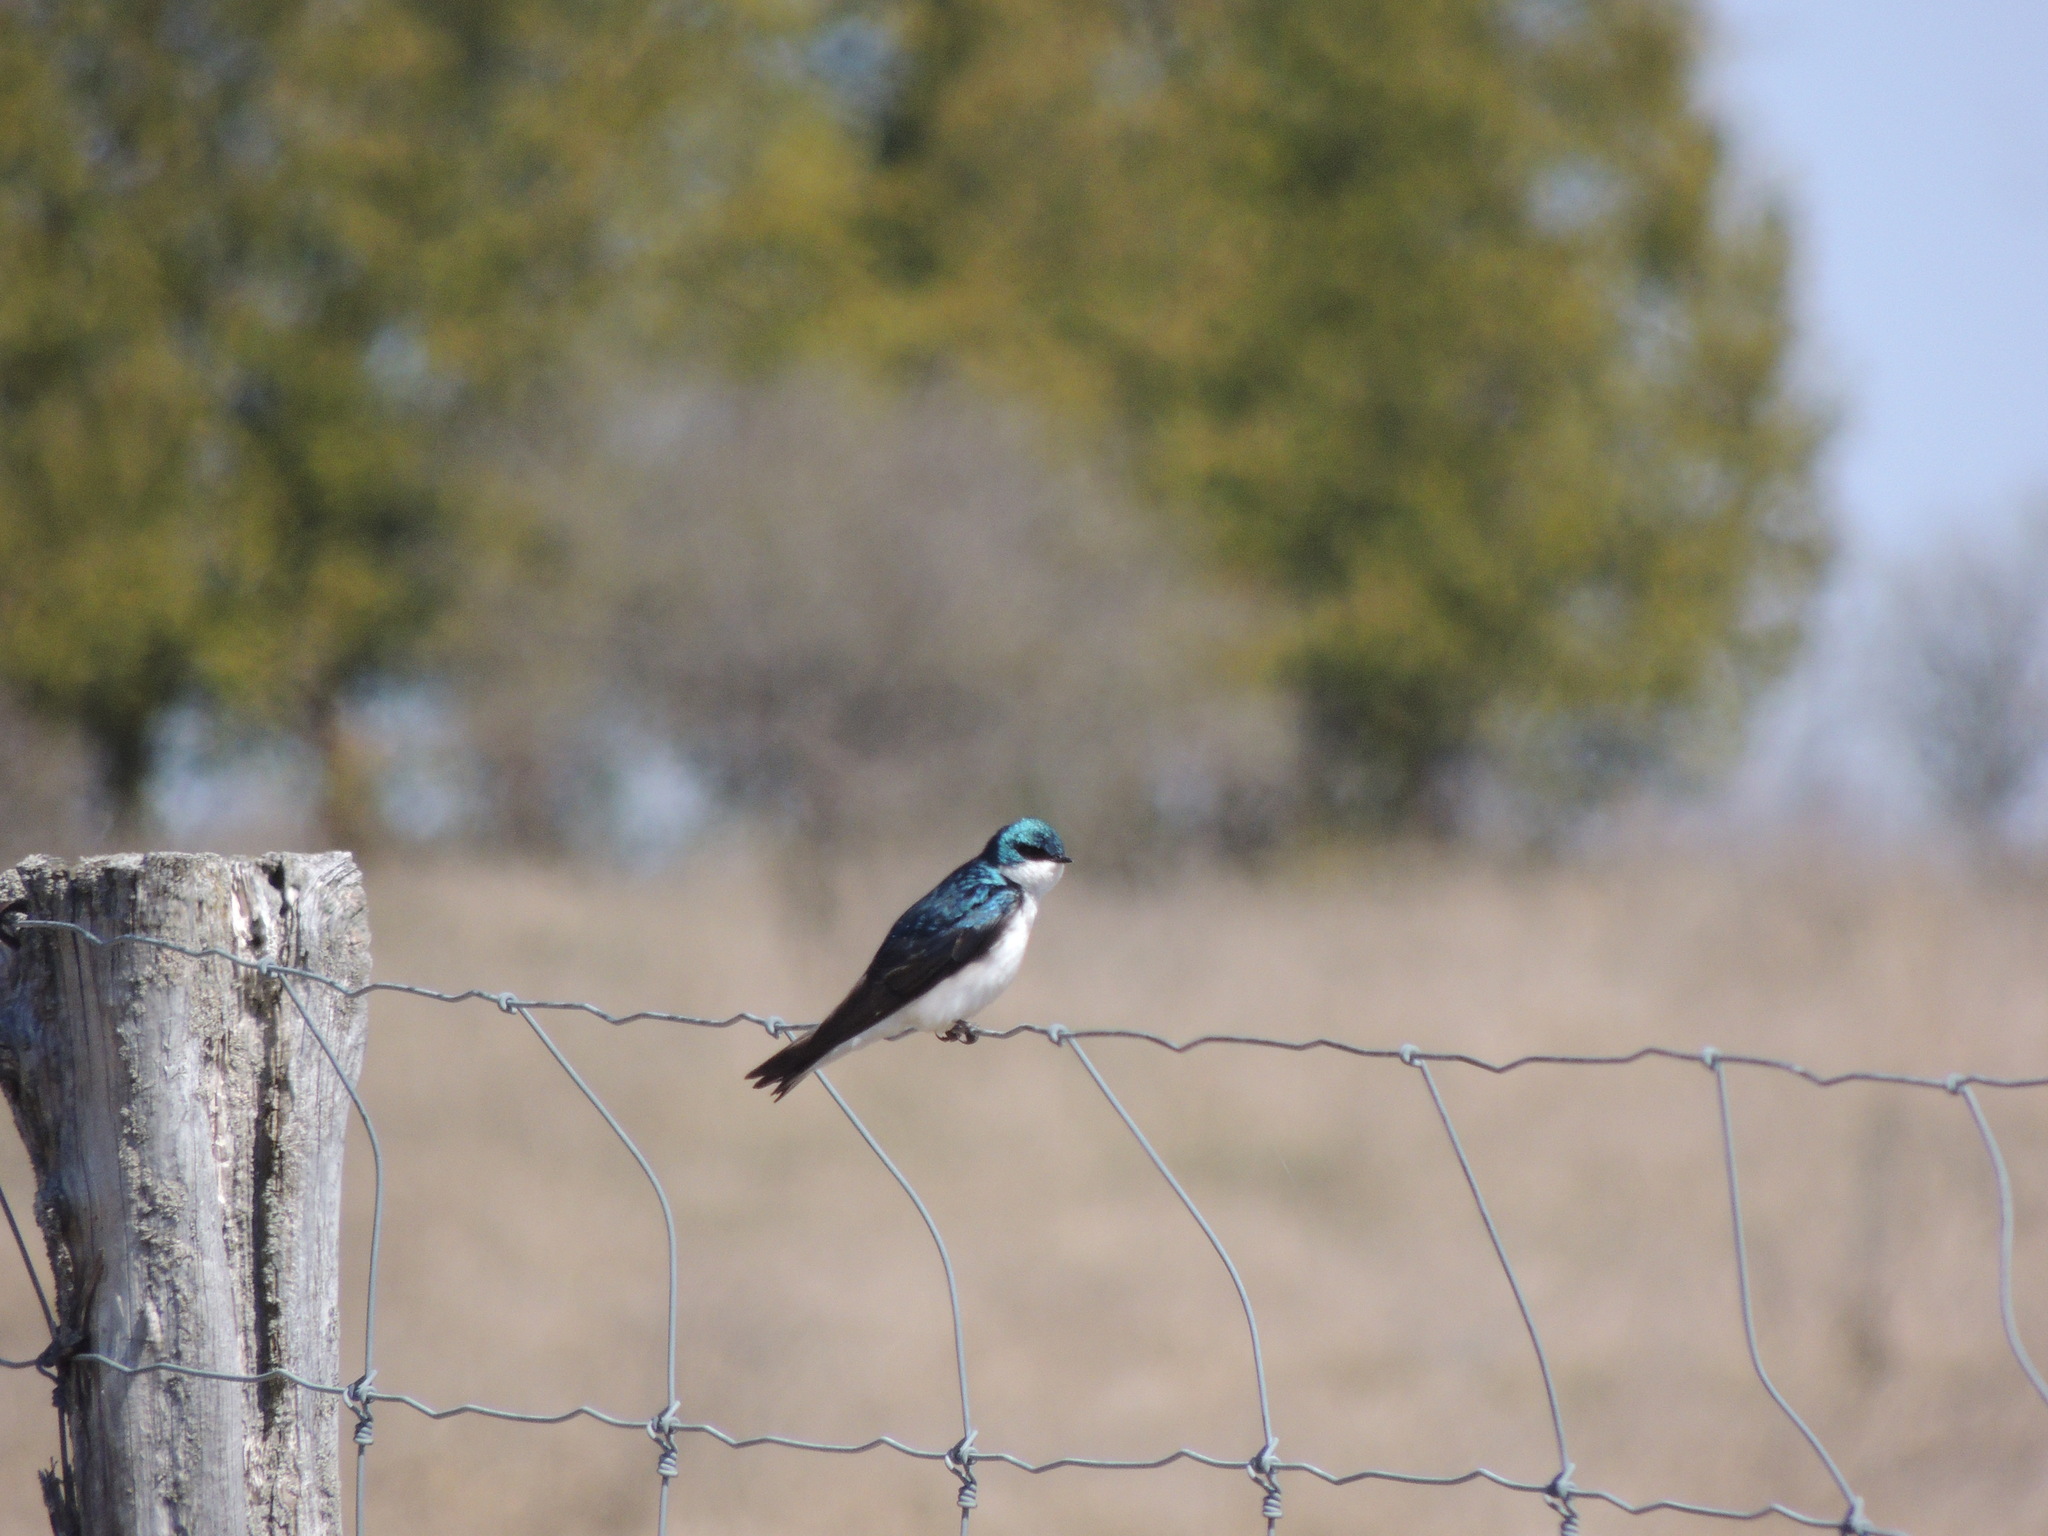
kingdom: Animalia
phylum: Chordata
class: Aves
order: Passeriformes
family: Hirundinidae
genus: Tachycineta
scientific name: Tachycineta bicolor
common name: Tree swallow
